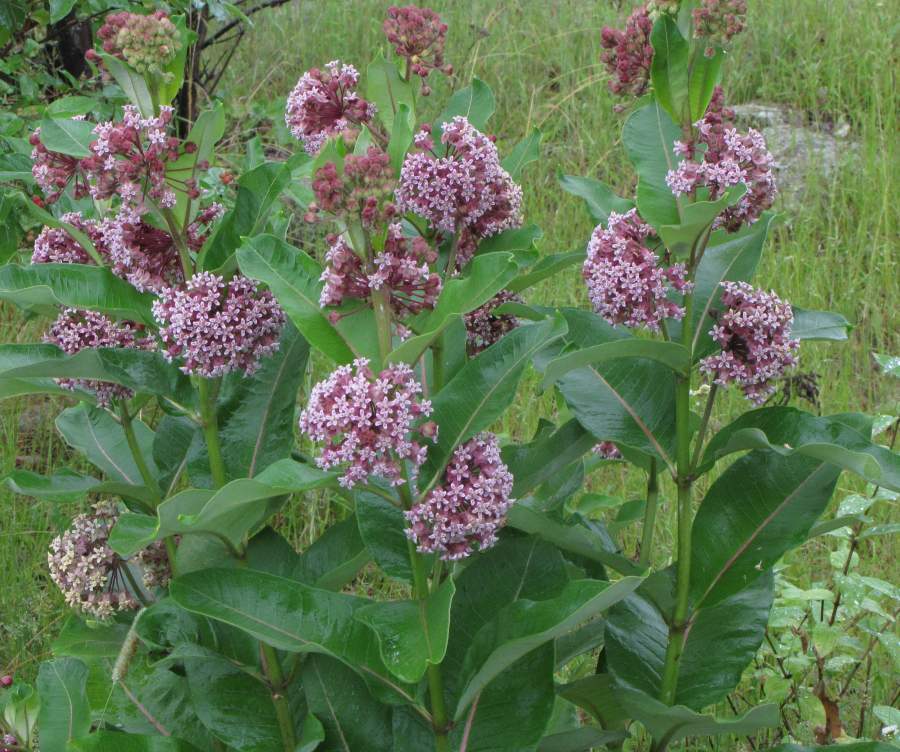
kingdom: Plantae
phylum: Tracheophyta
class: Magnoliopsida
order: Gentianales
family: Apocynaceae
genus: Asclepias
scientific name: Asclepias syriaca
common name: Common milkweed
